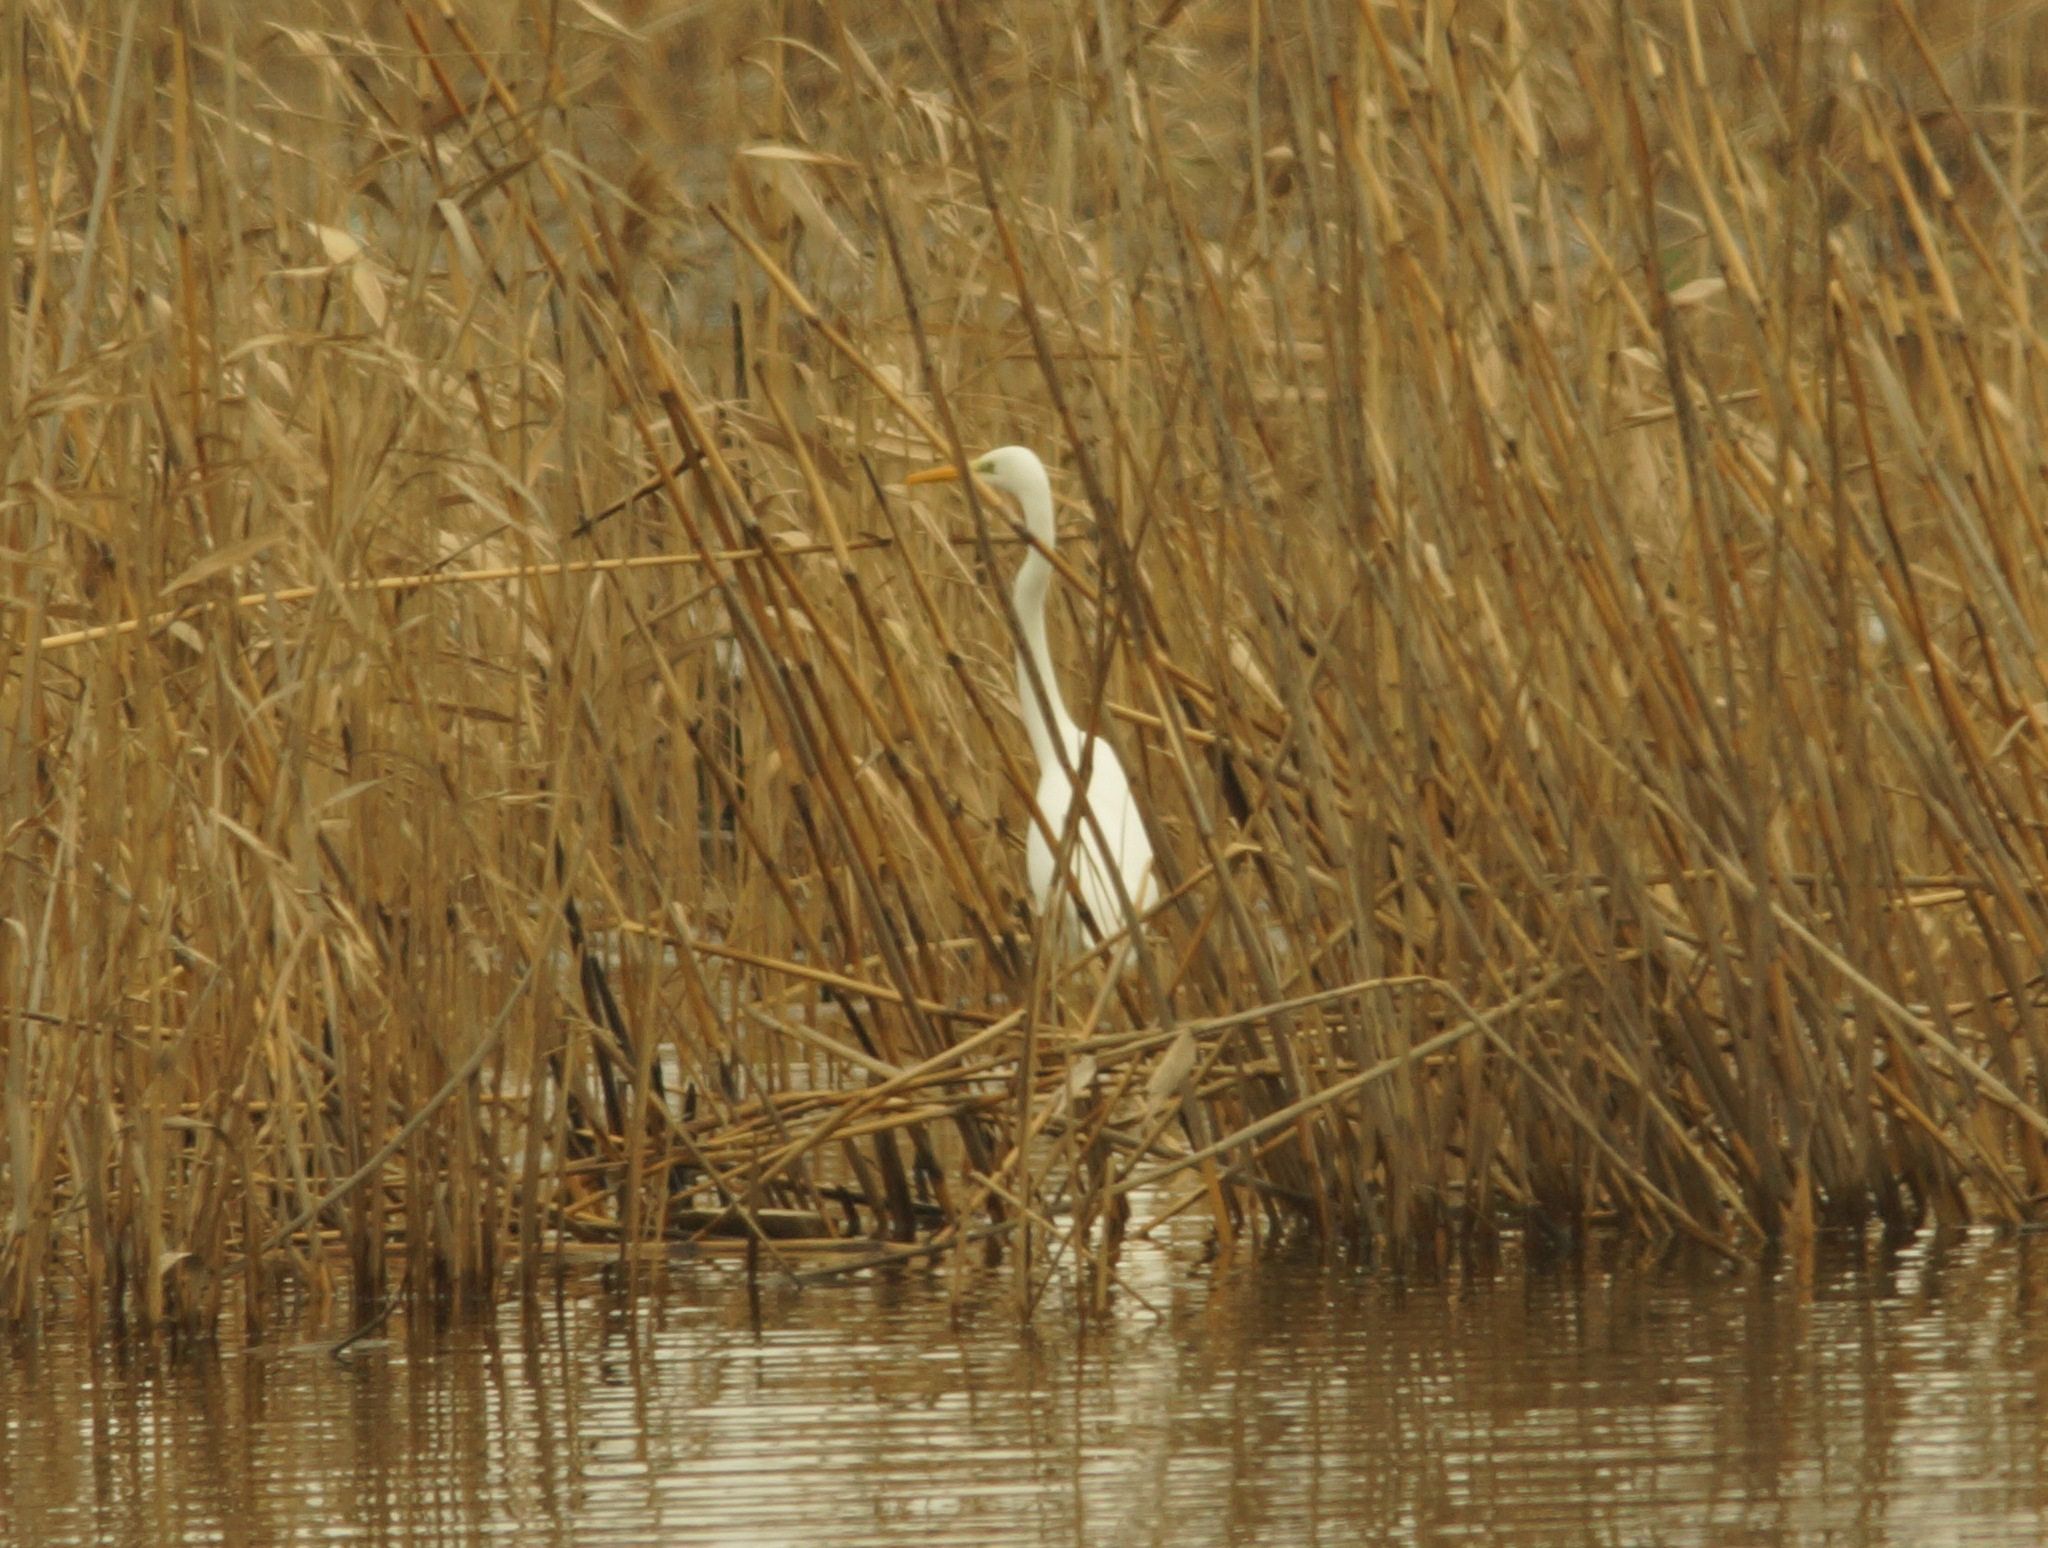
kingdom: Animalia
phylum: Chordata
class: Aves
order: Pelecaniformes
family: Ardeidae
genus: Ardea
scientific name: Ardea alba
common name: Great egret
